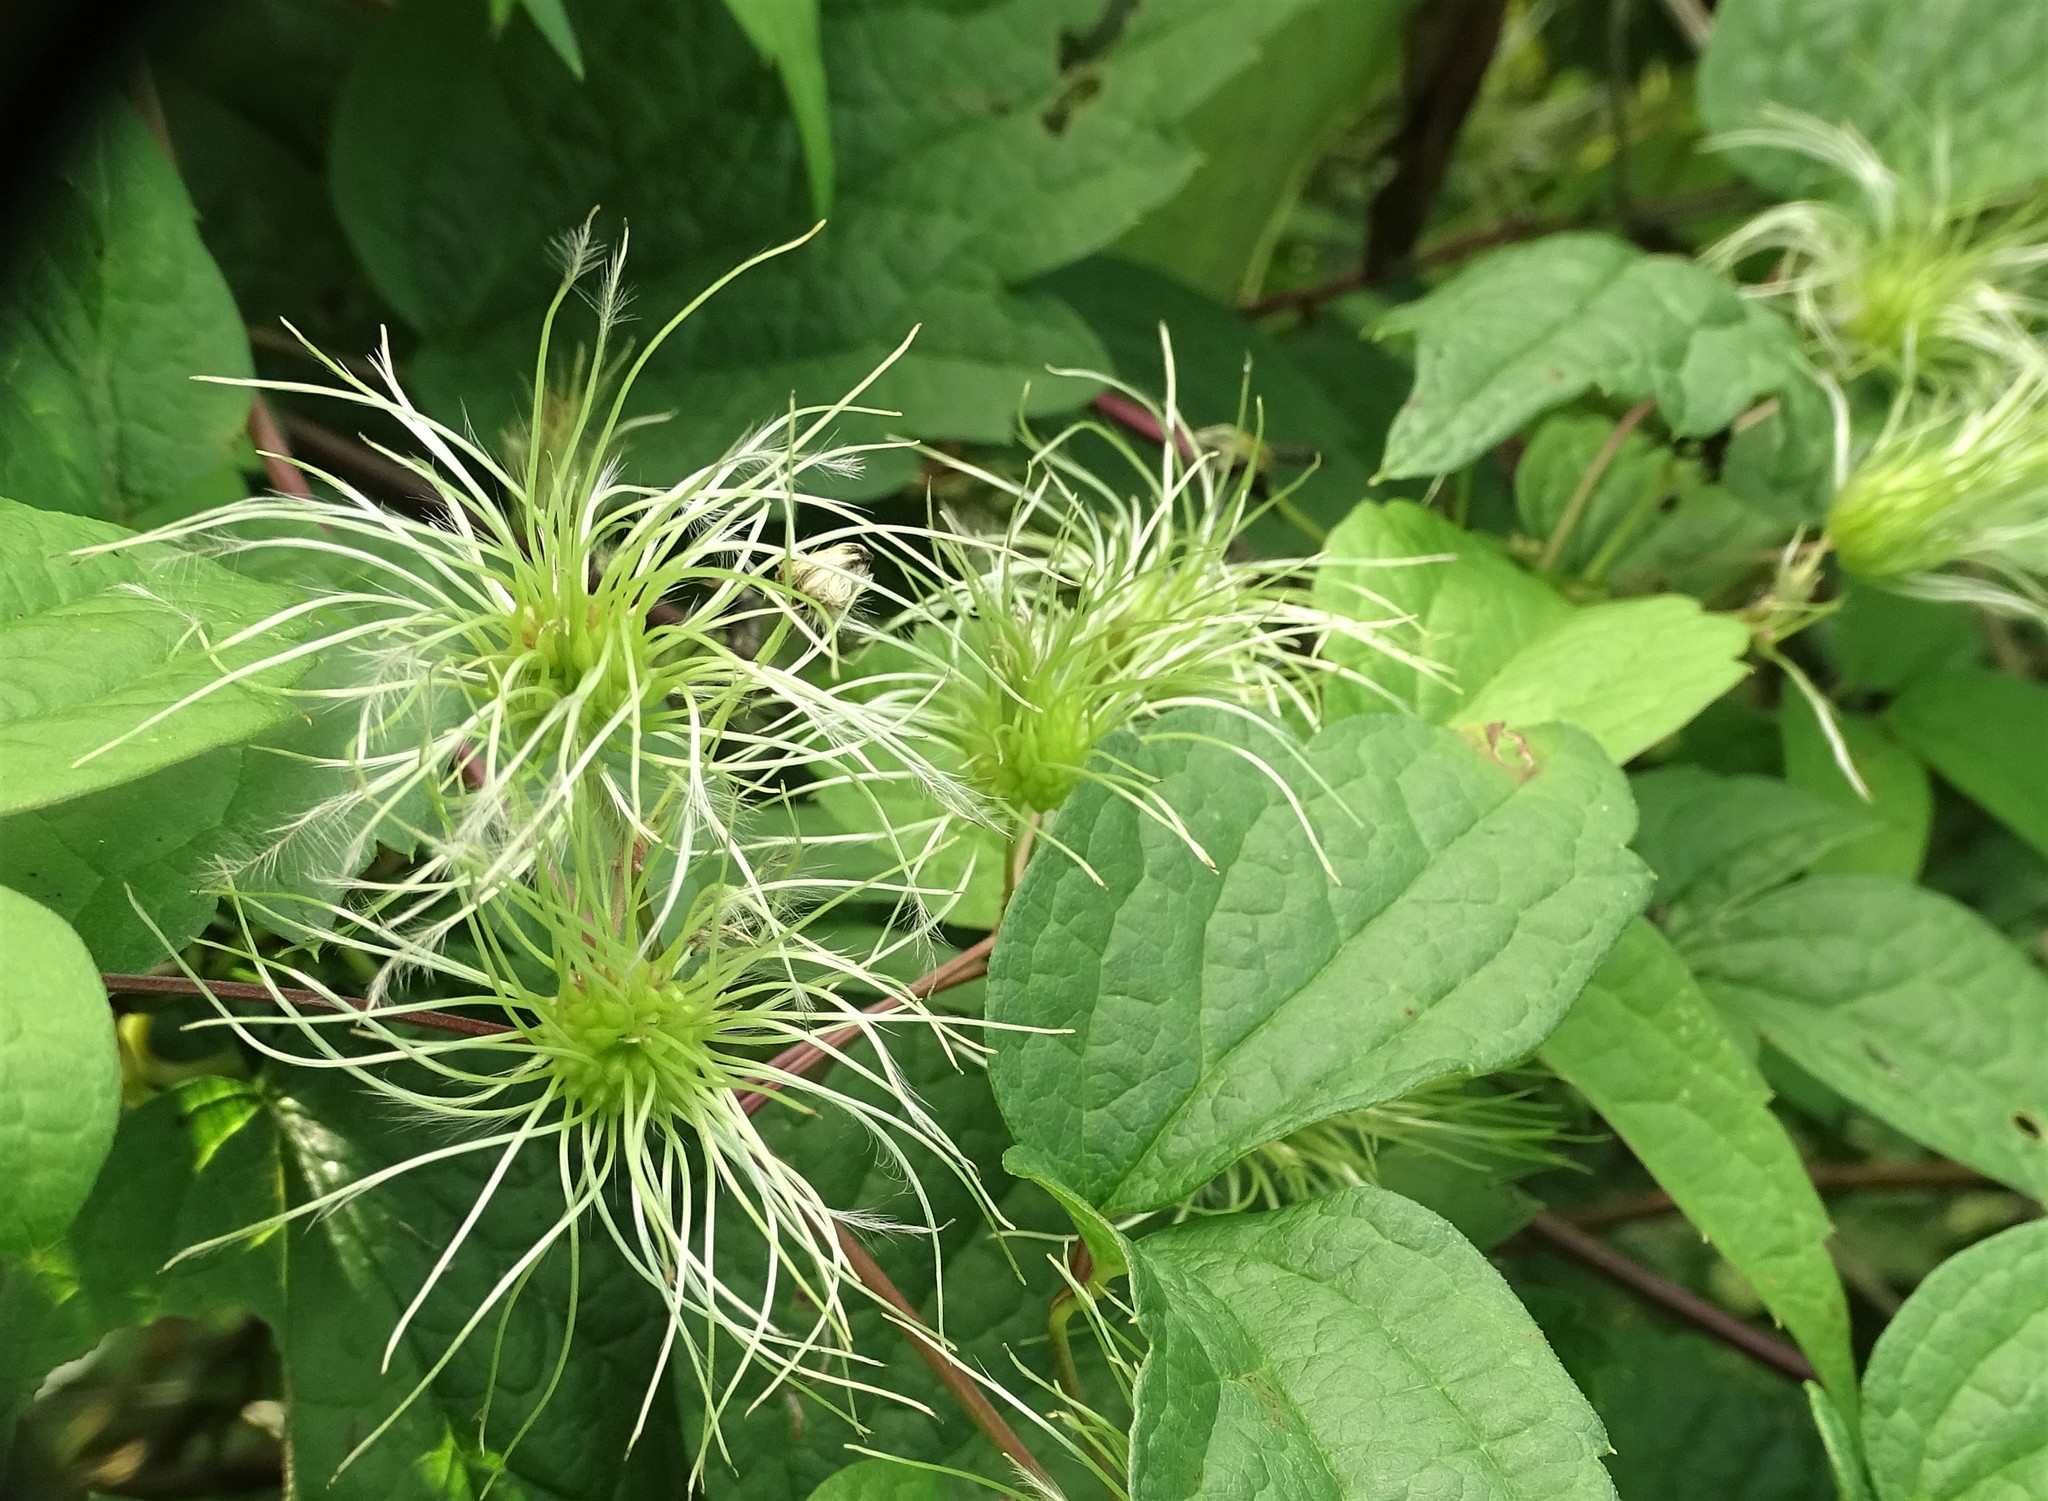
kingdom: Plantae
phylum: Tracheophyta
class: Magnoliopsida
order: Ranunculales
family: Ranunculaceae
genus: Clematis
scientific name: Clematis virginiana
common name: Virgin's-bower
